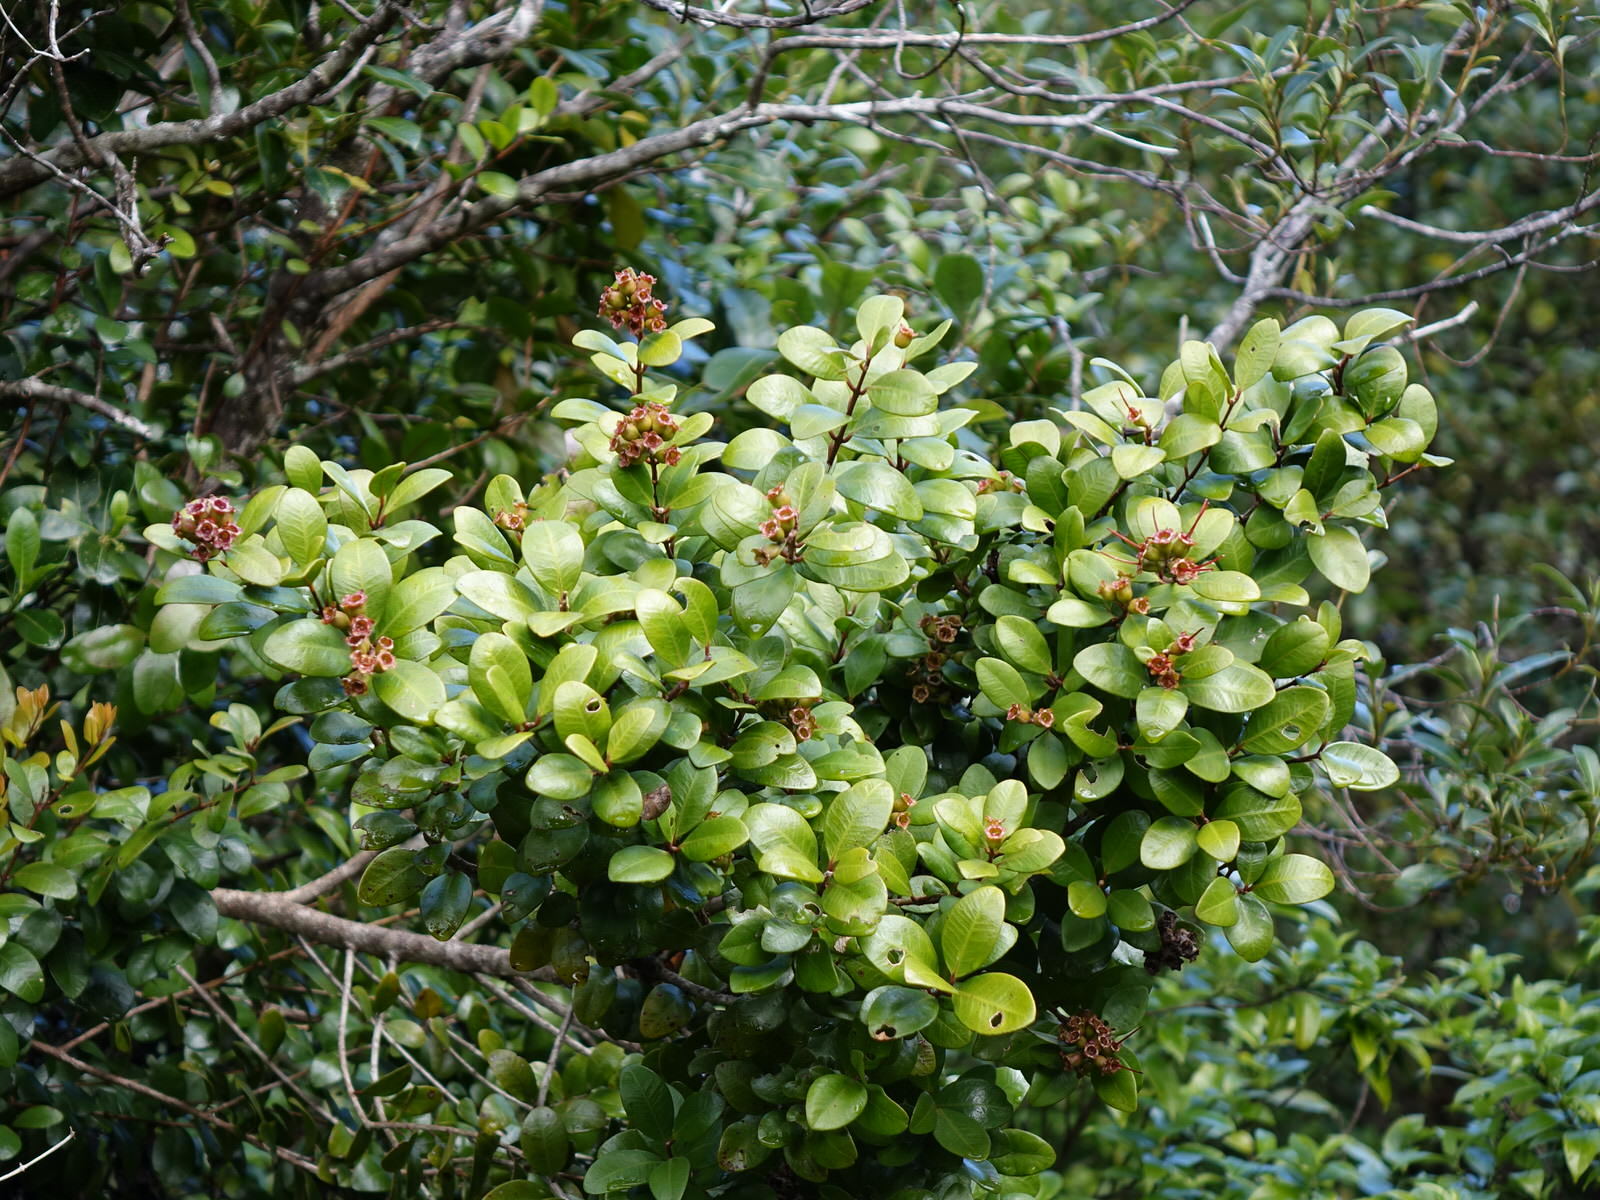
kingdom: Plantae
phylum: Tracheophyta
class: Magnoliopsida
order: Myrtales
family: Myrtaceae
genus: Metrosideros
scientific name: Metrosideros fulgens
